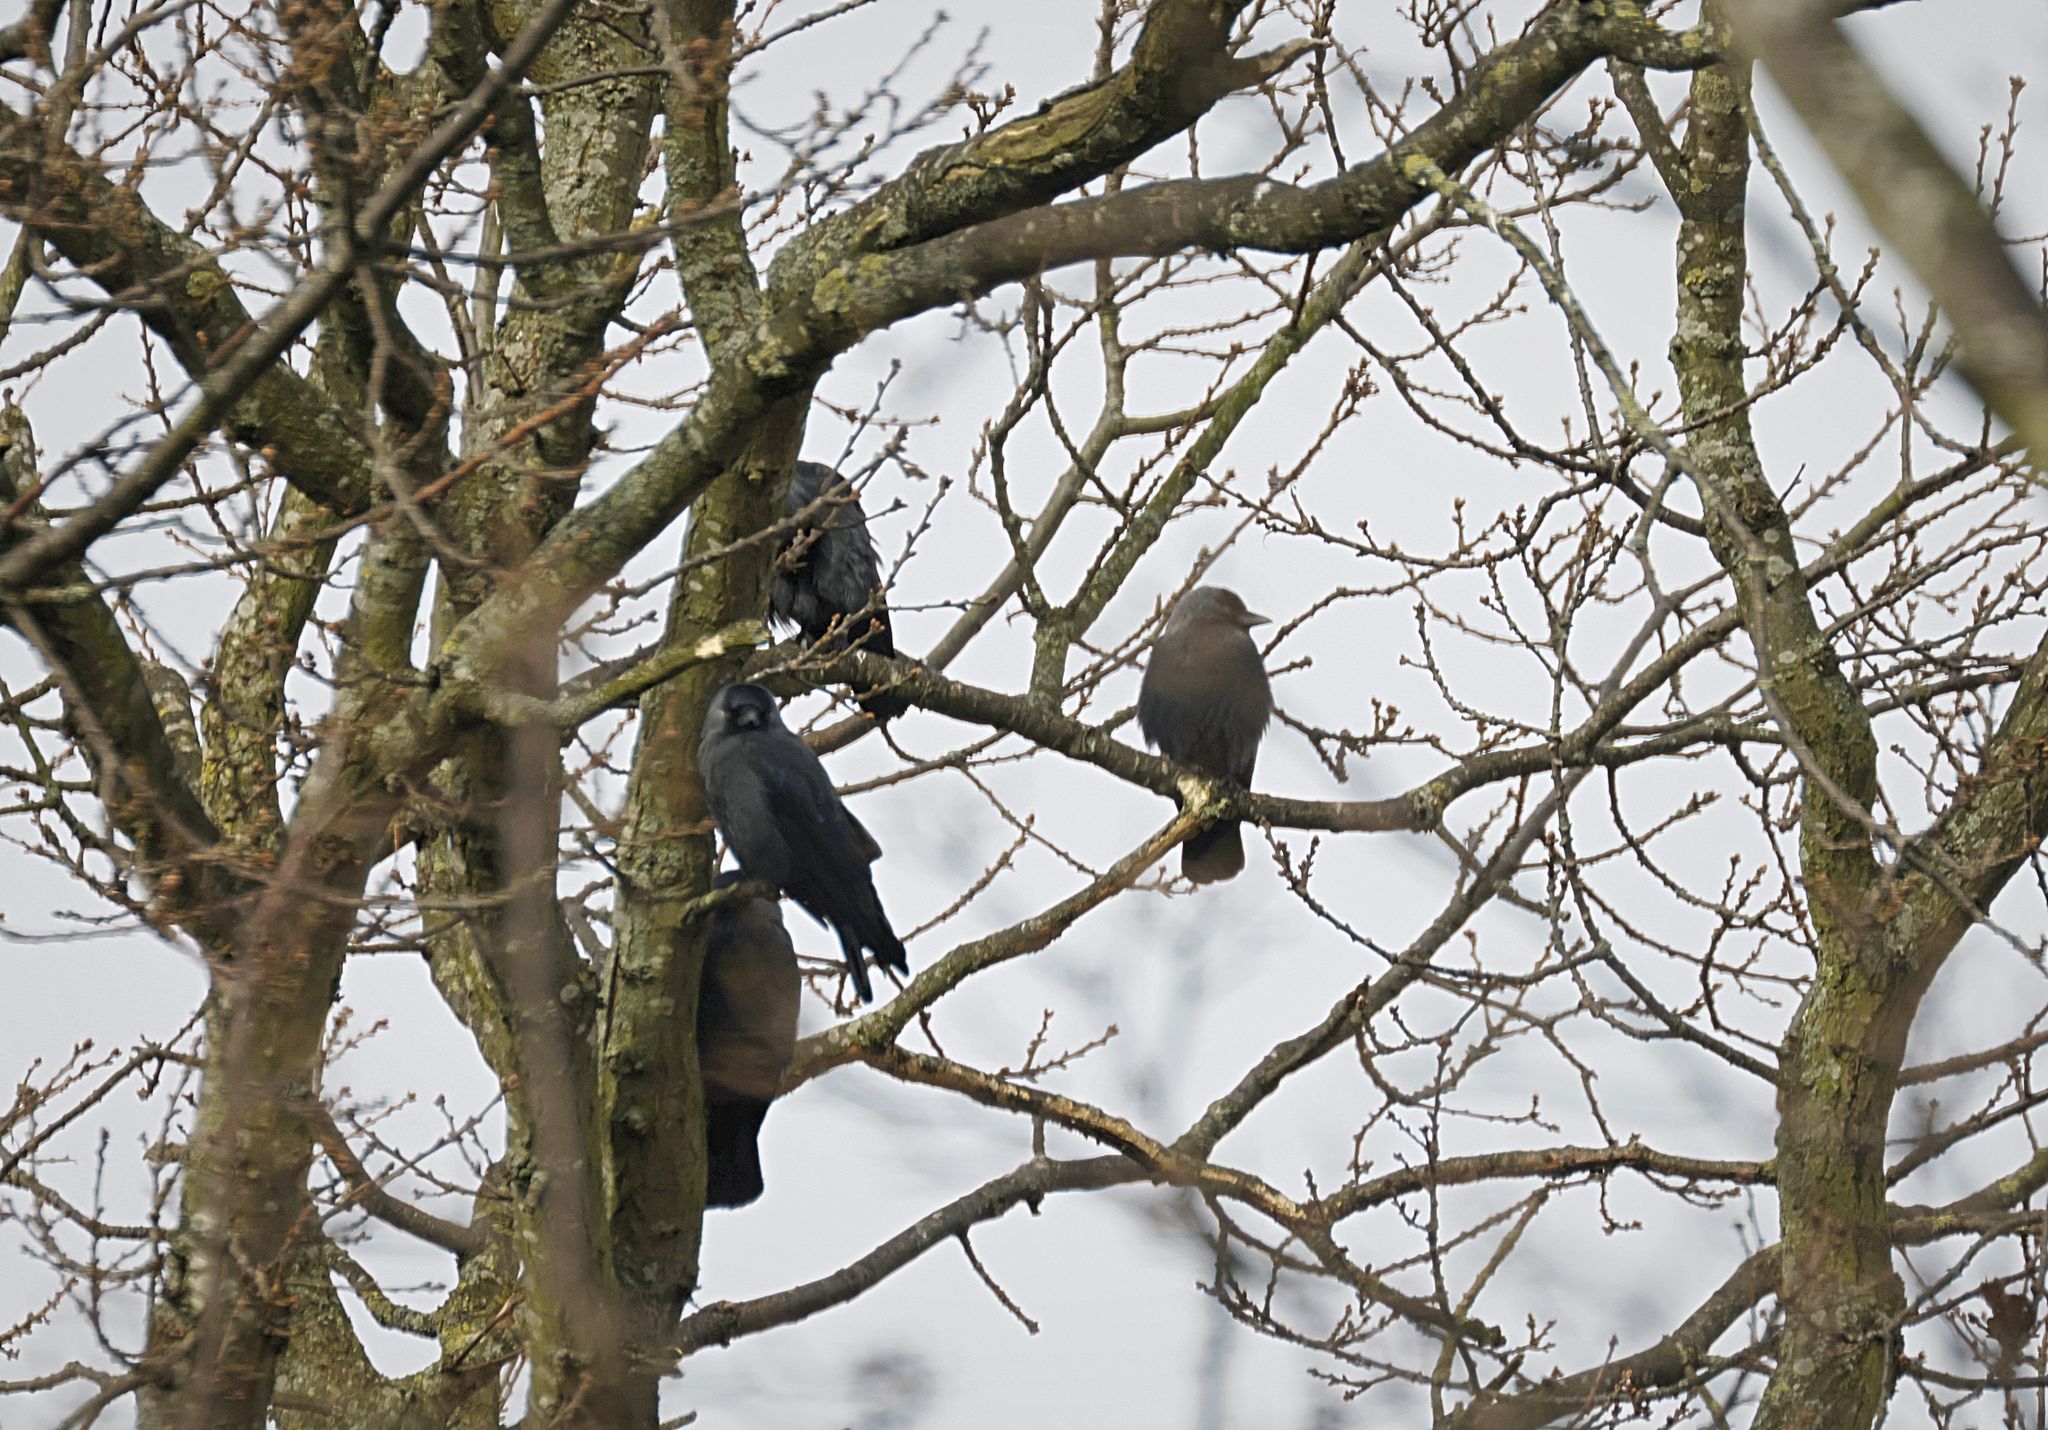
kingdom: Animalia
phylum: Chordata
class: Aves
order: Passeriformes
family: Corvidae
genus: Coloeus
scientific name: Coloeus monedula
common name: Western jackdaw
